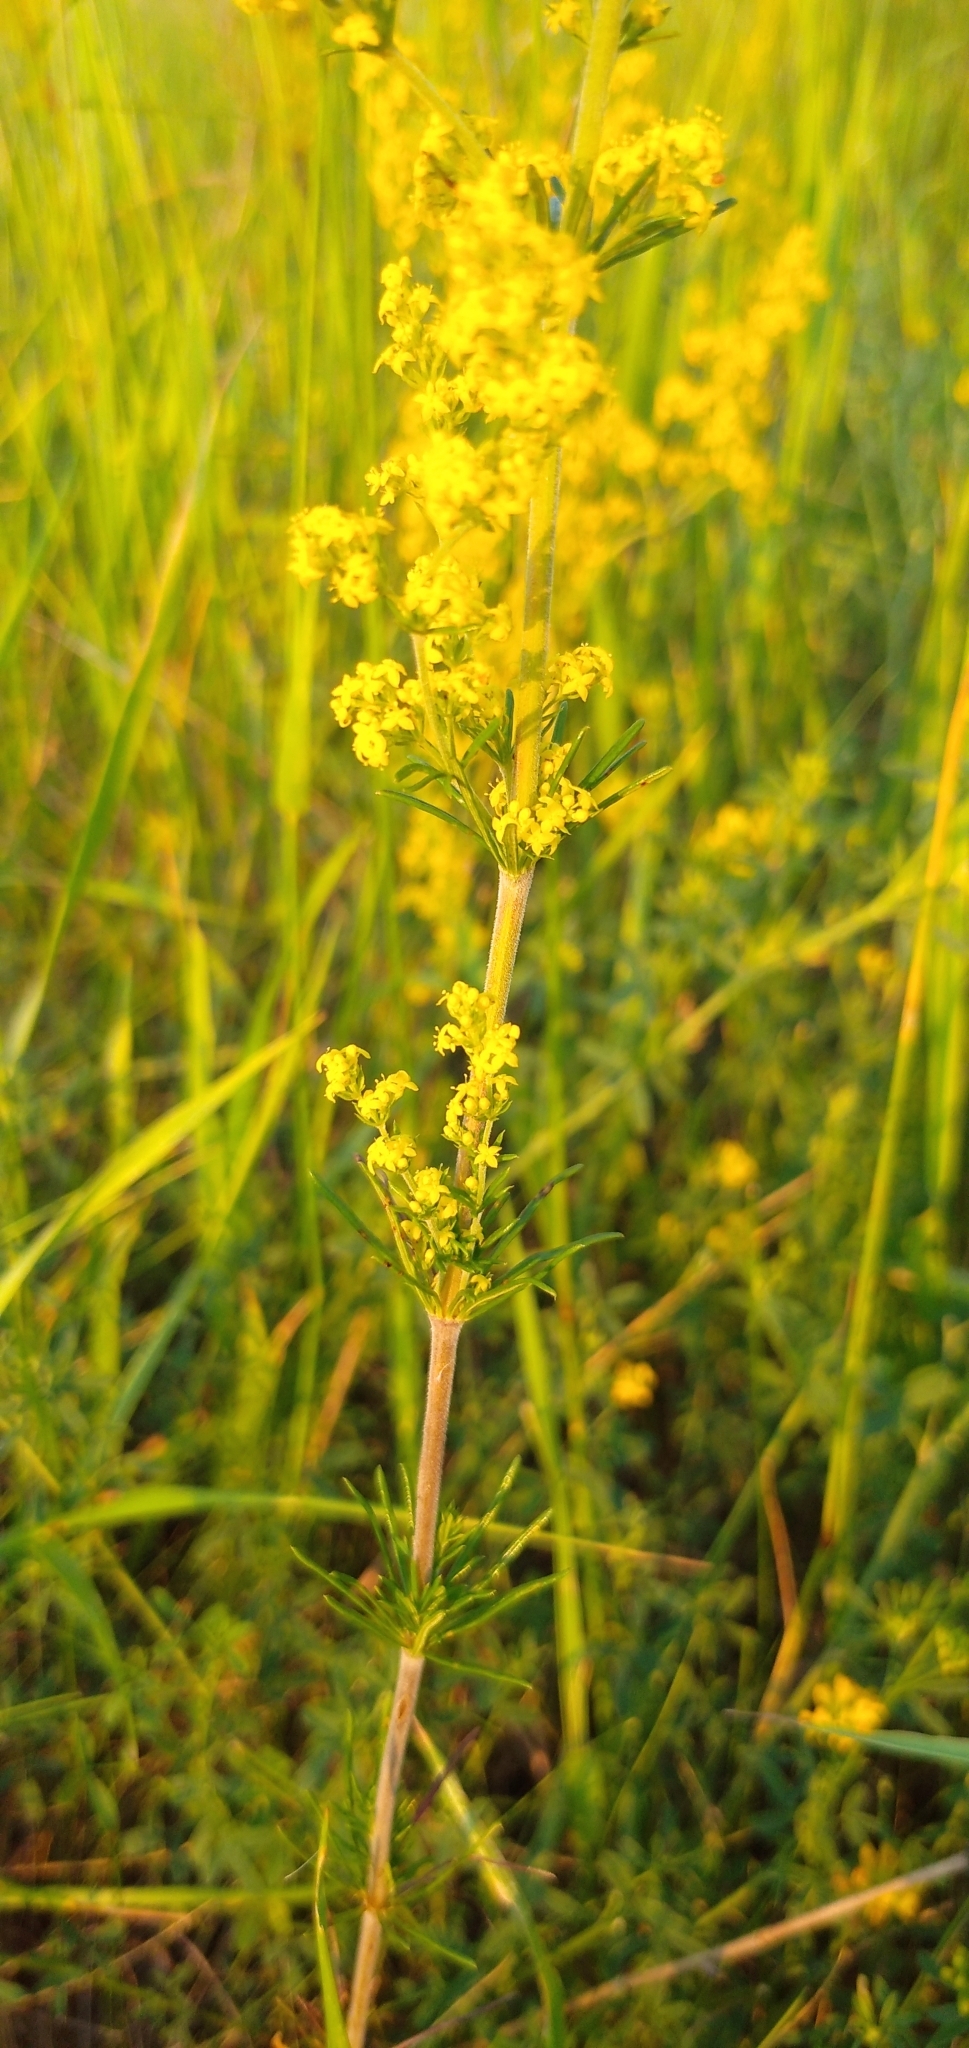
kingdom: Plantae
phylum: Tracheophyta
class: Magnoliopsida
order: Gentianales
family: Rubiaceae
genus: Galium
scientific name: Galium verum
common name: Lady's bedstraw
